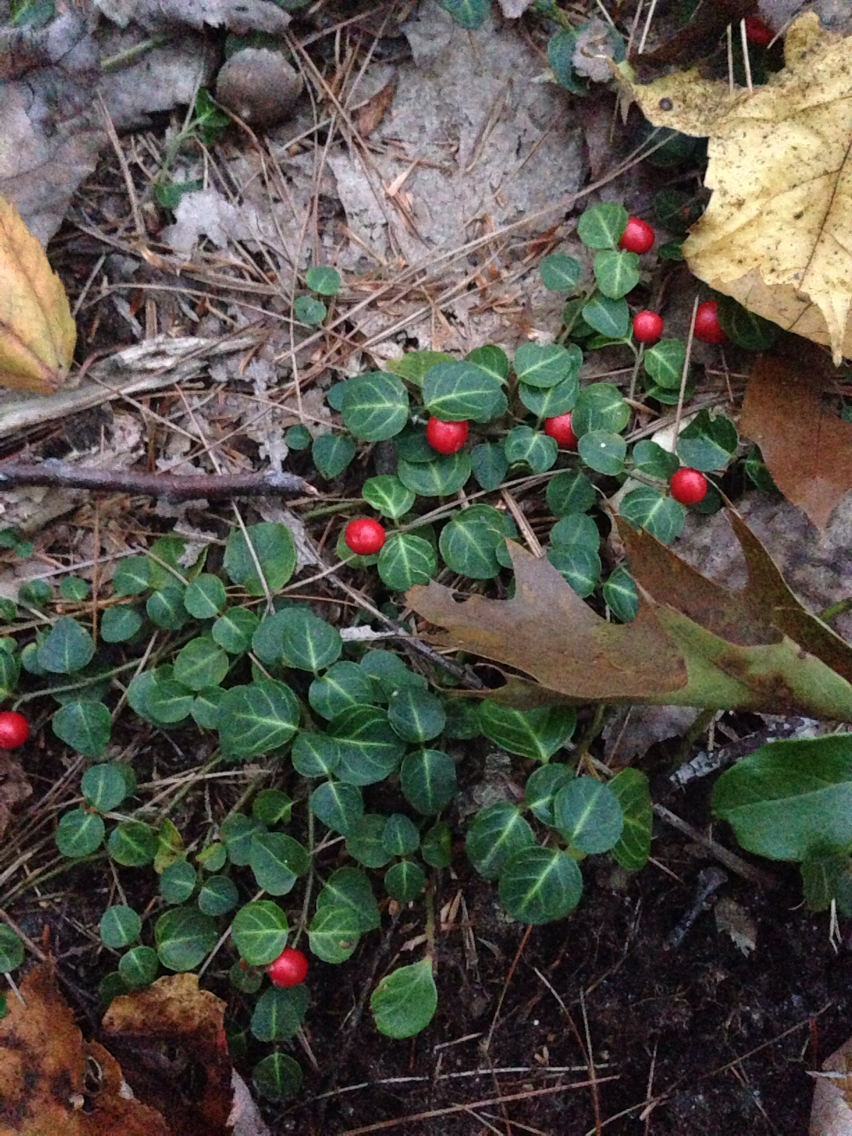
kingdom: Plantae
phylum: Tracheophyta
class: Magnoliopsida
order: Gentianales
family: Rubiaceae
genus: Mitchella
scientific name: Mitchella repens
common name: Partridge-berry
